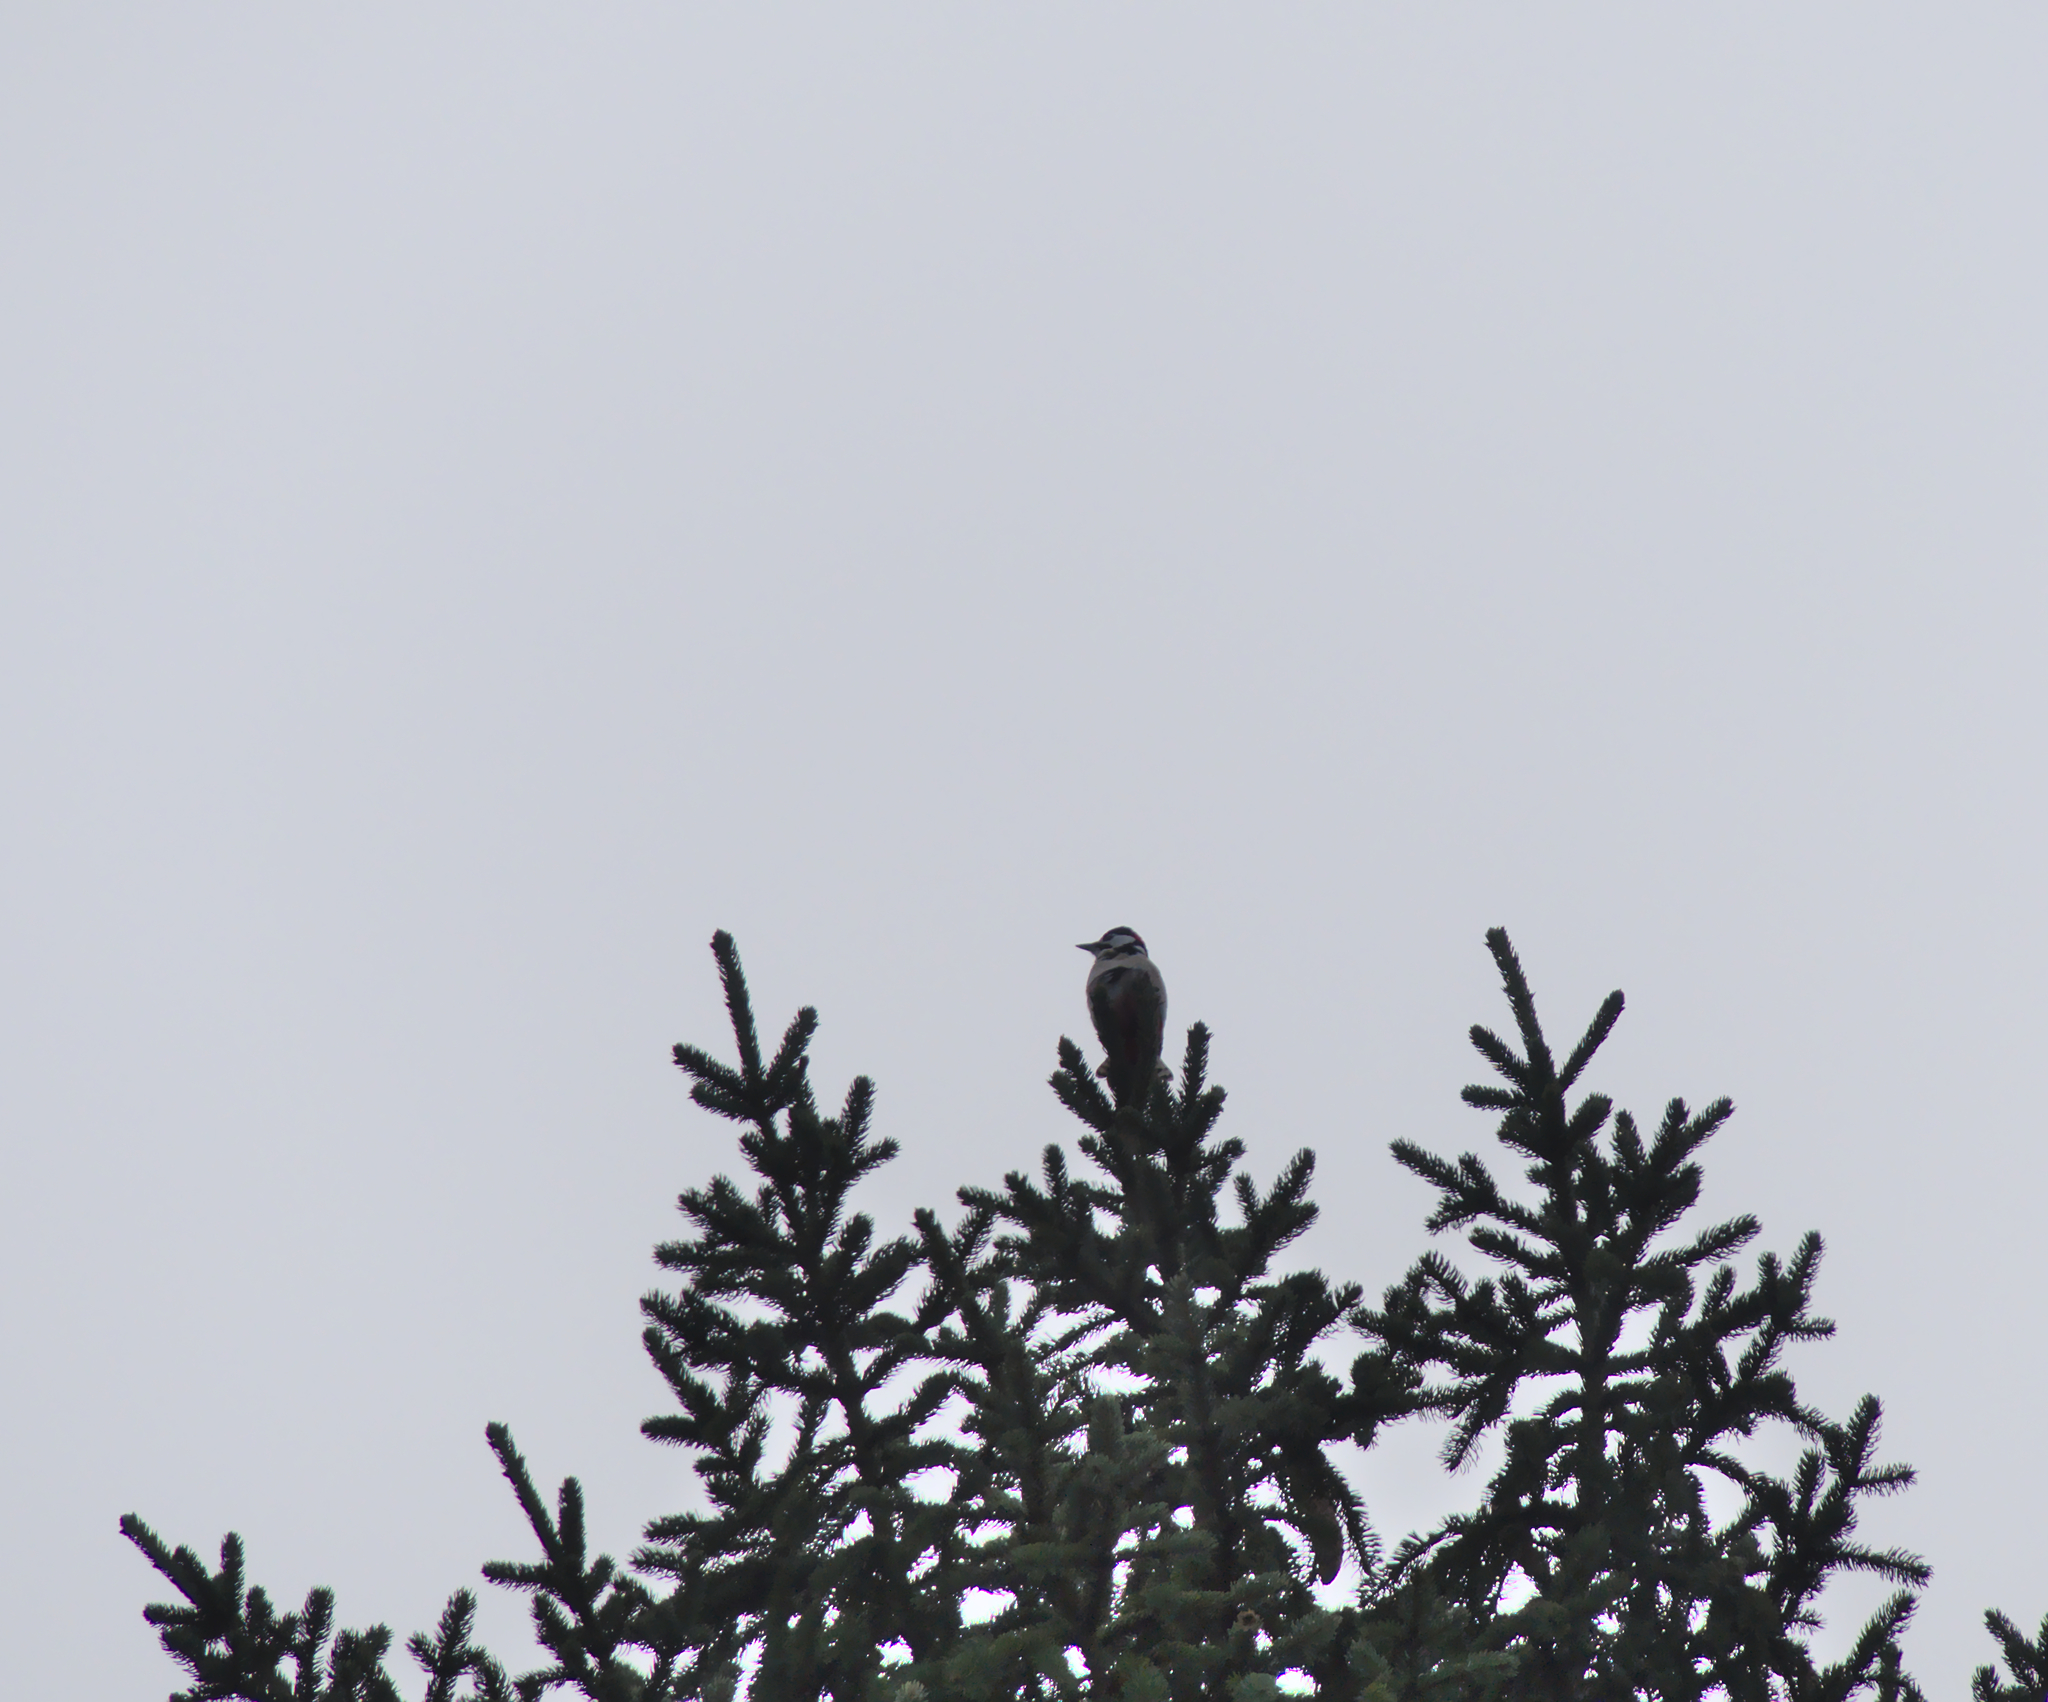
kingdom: Animalia
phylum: Chordata
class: Aves
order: Piciformes
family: Picidae
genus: Dendrocopos
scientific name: Dendrocopos major
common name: Great spotted woodpecker
